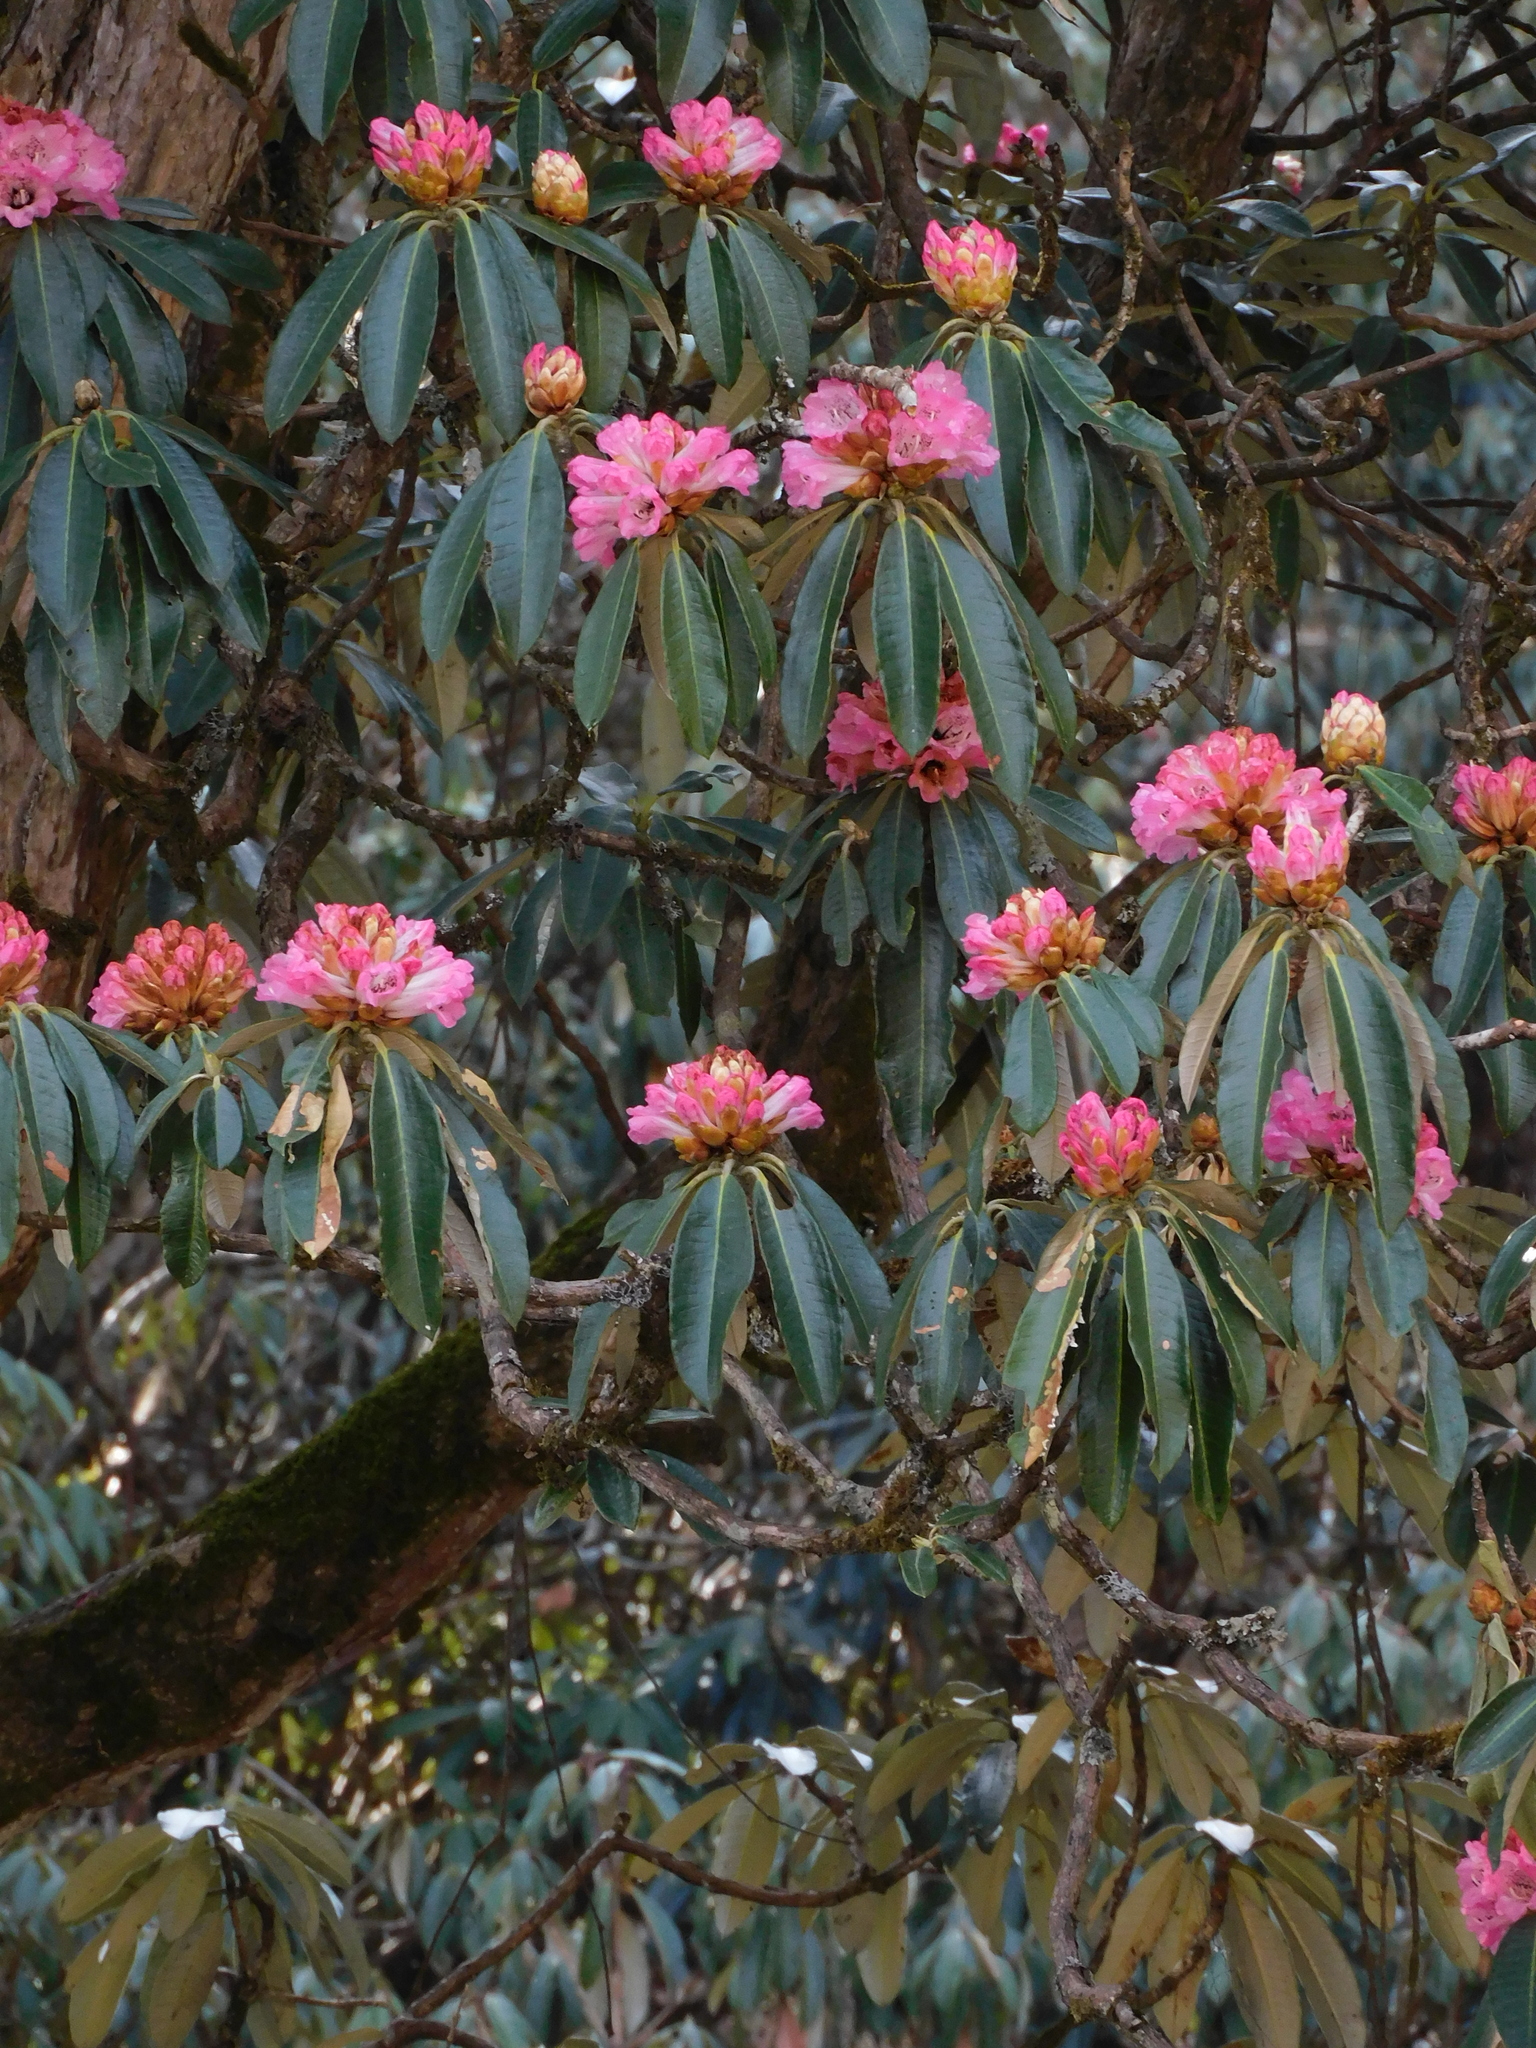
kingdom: Plantae
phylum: Tracheophyta
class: Magnoliopsida
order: Ericales
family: Ericaceae
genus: Rhododendron
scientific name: Rhododendron arboreum
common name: Tree rhododendron
